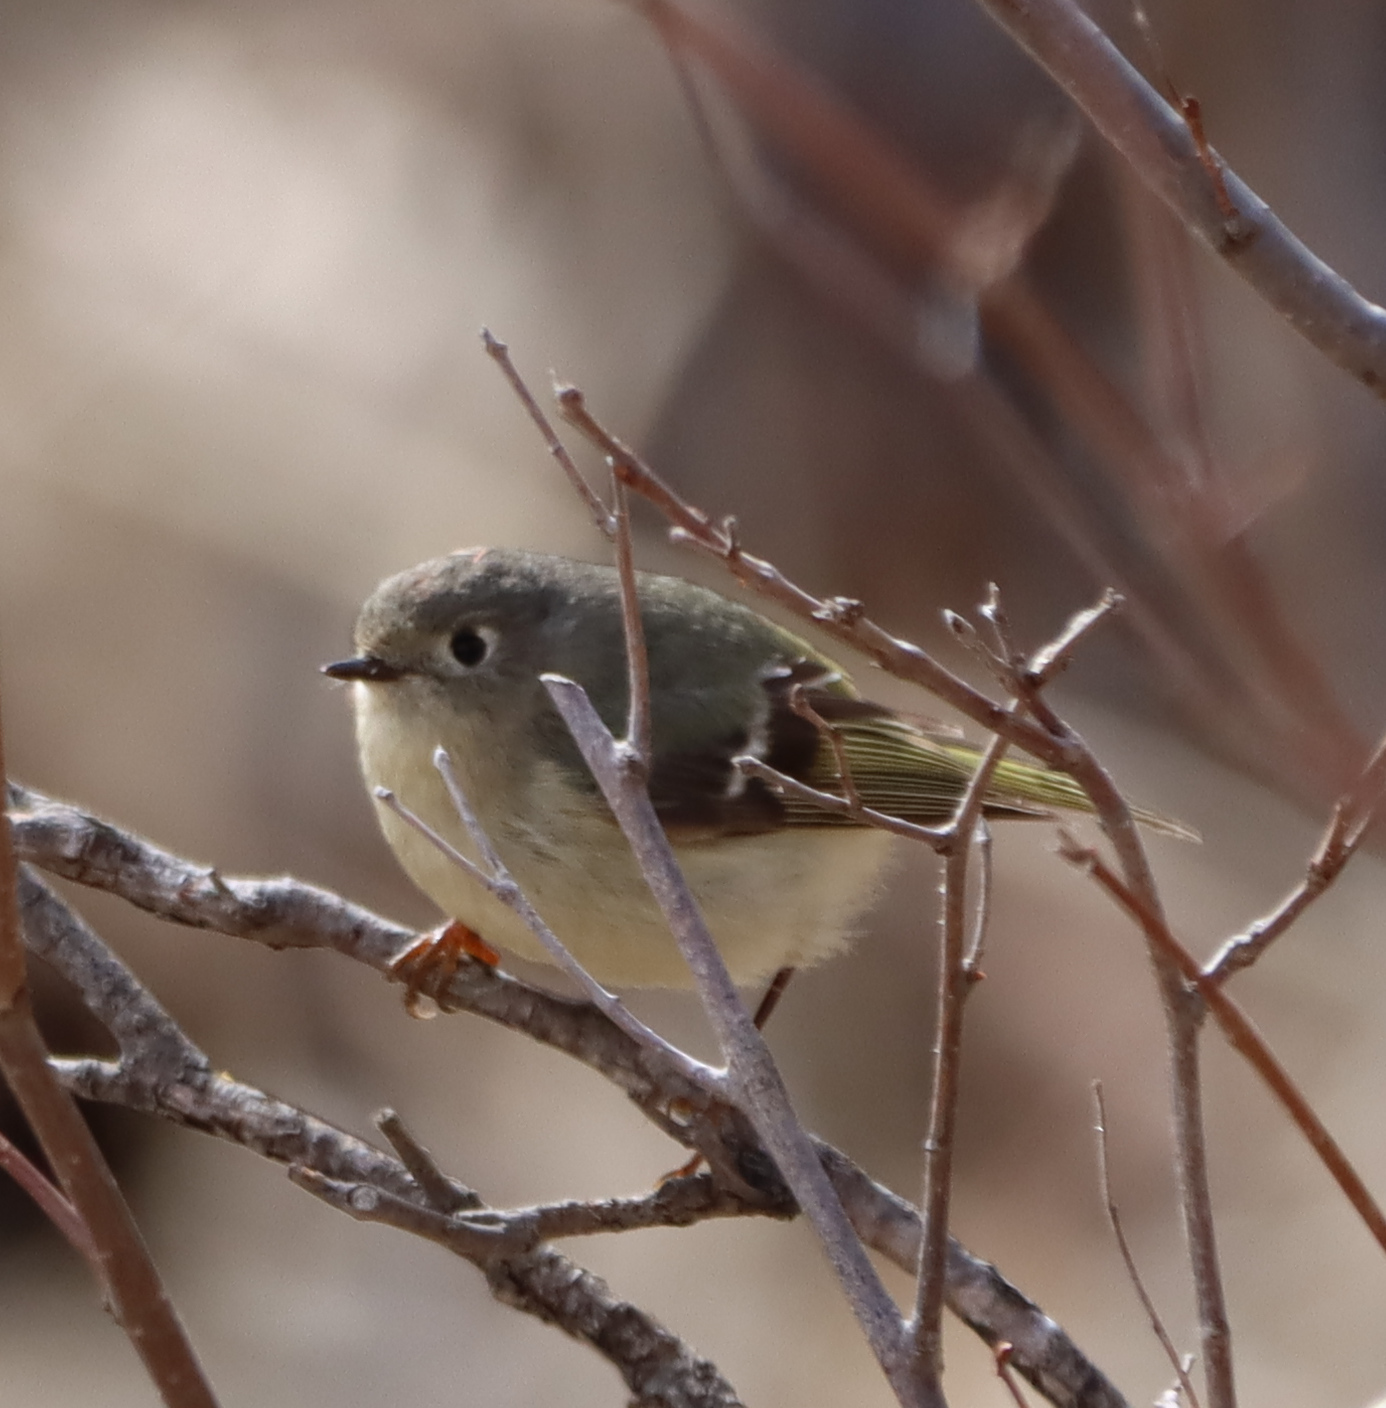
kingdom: Animalia
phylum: Chordata
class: Aves
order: Passeriformes
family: Regulidae
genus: Regulus
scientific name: Regulus calendula
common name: Ruby-crowned kinglet
